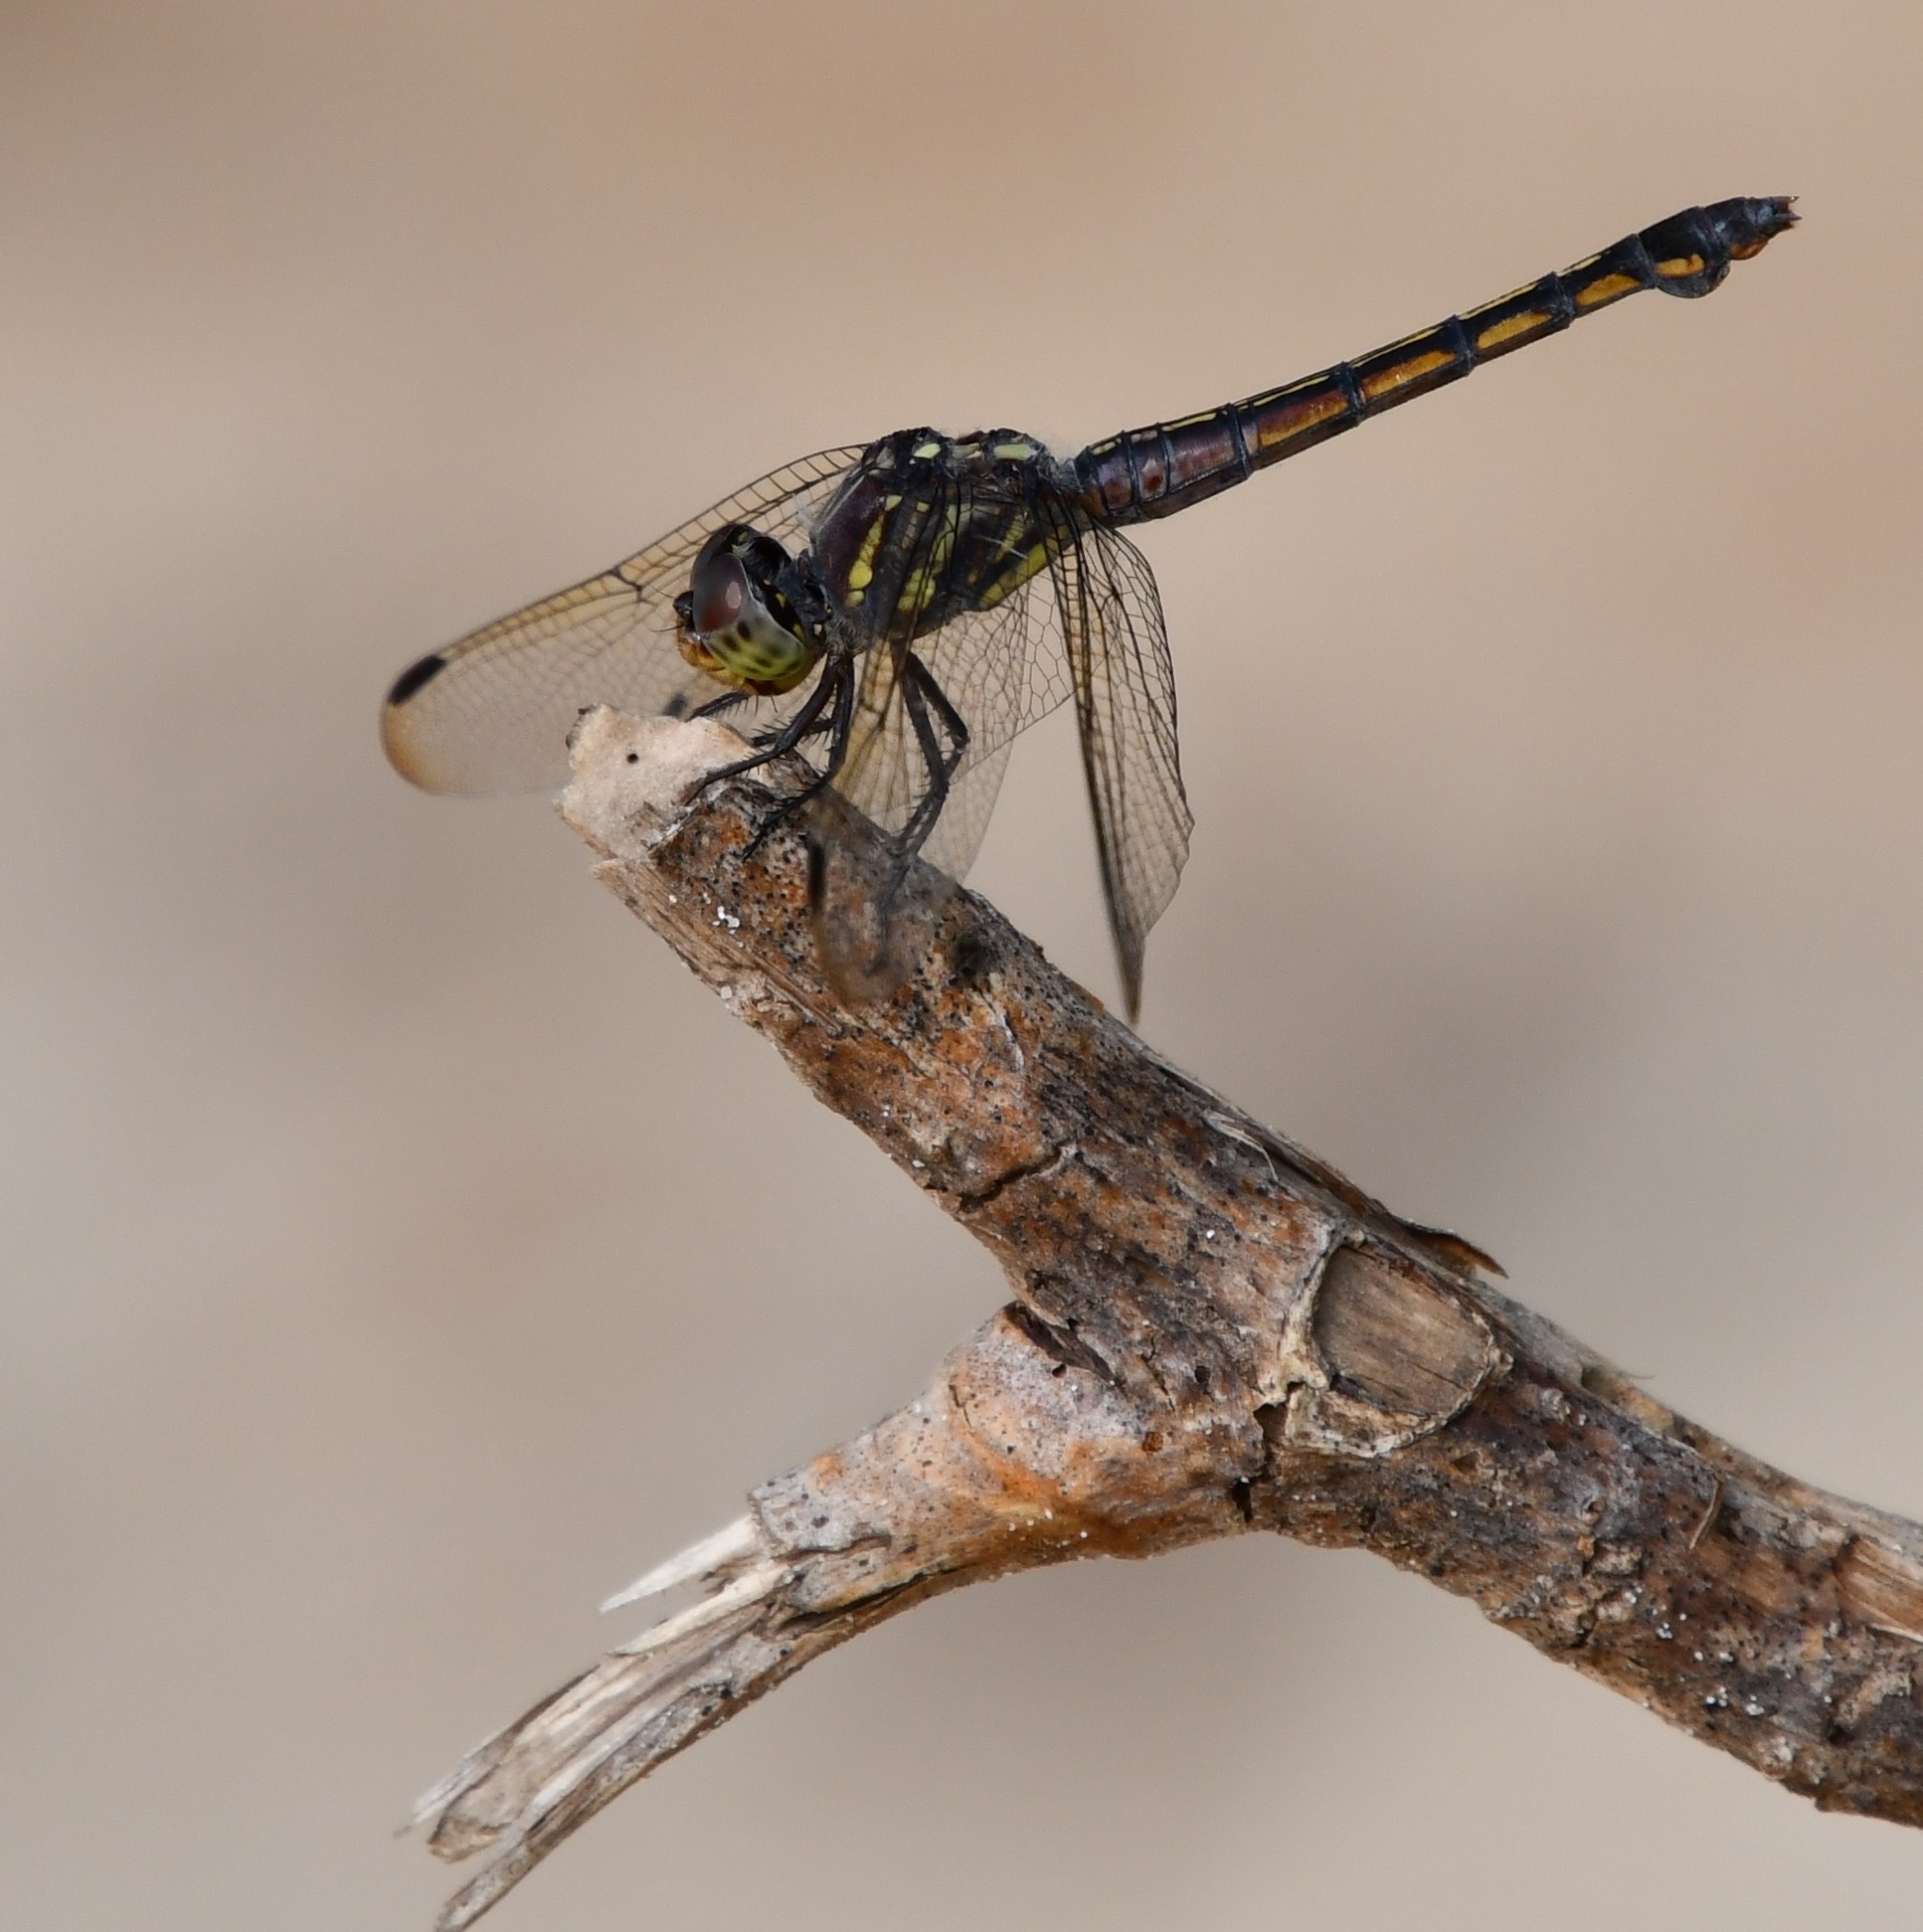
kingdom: Animalia
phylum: Arthropoda
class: Insecta
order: Odonata
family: Libellulidae
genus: Potamarcha
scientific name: Potamarcha congener
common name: Blue chaser
